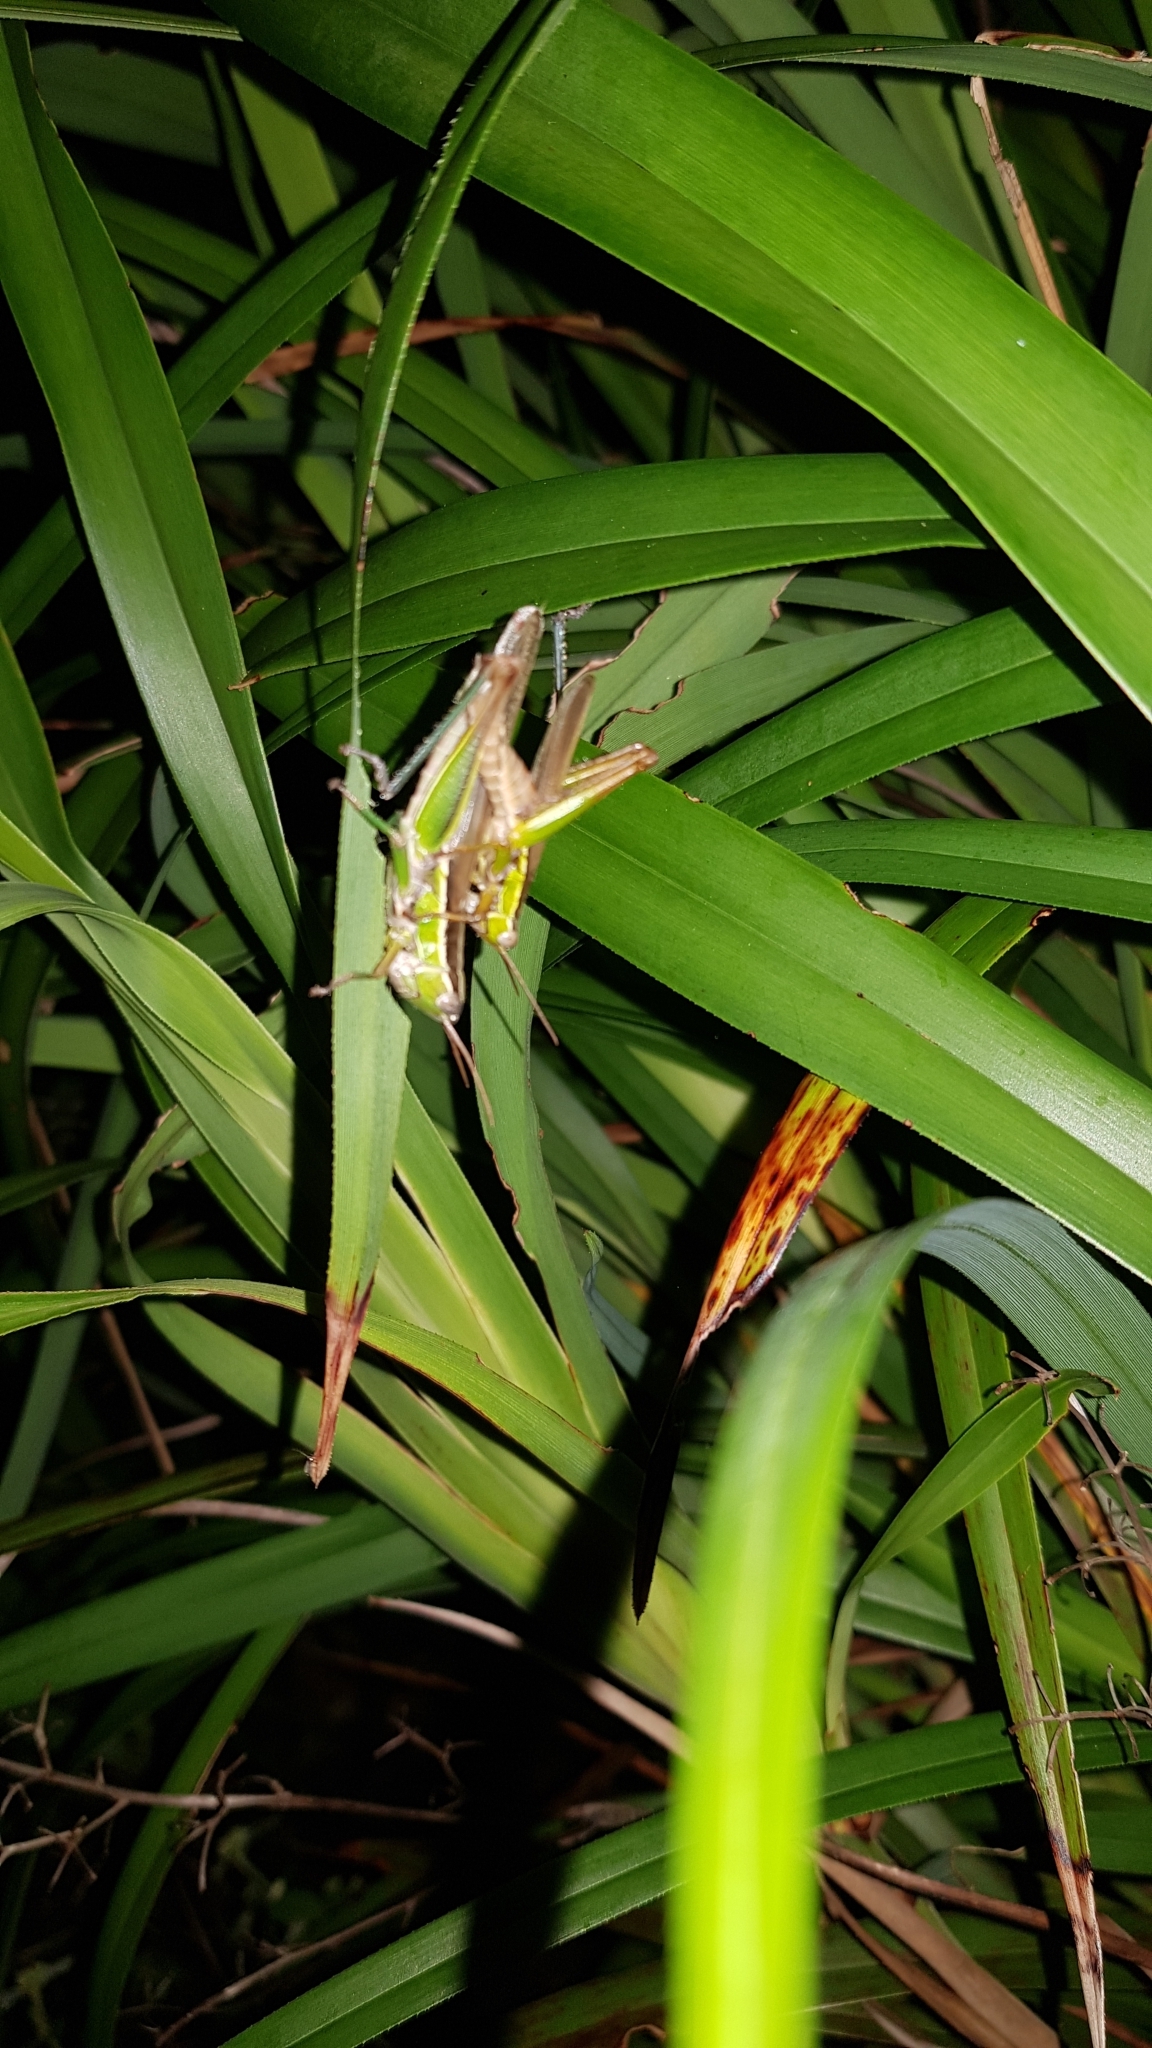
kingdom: Animalia
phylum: Arthropoda
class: Insecta
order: Orthoptera
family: Acrididae
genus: Bermius
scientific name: Bermius brachycerus
